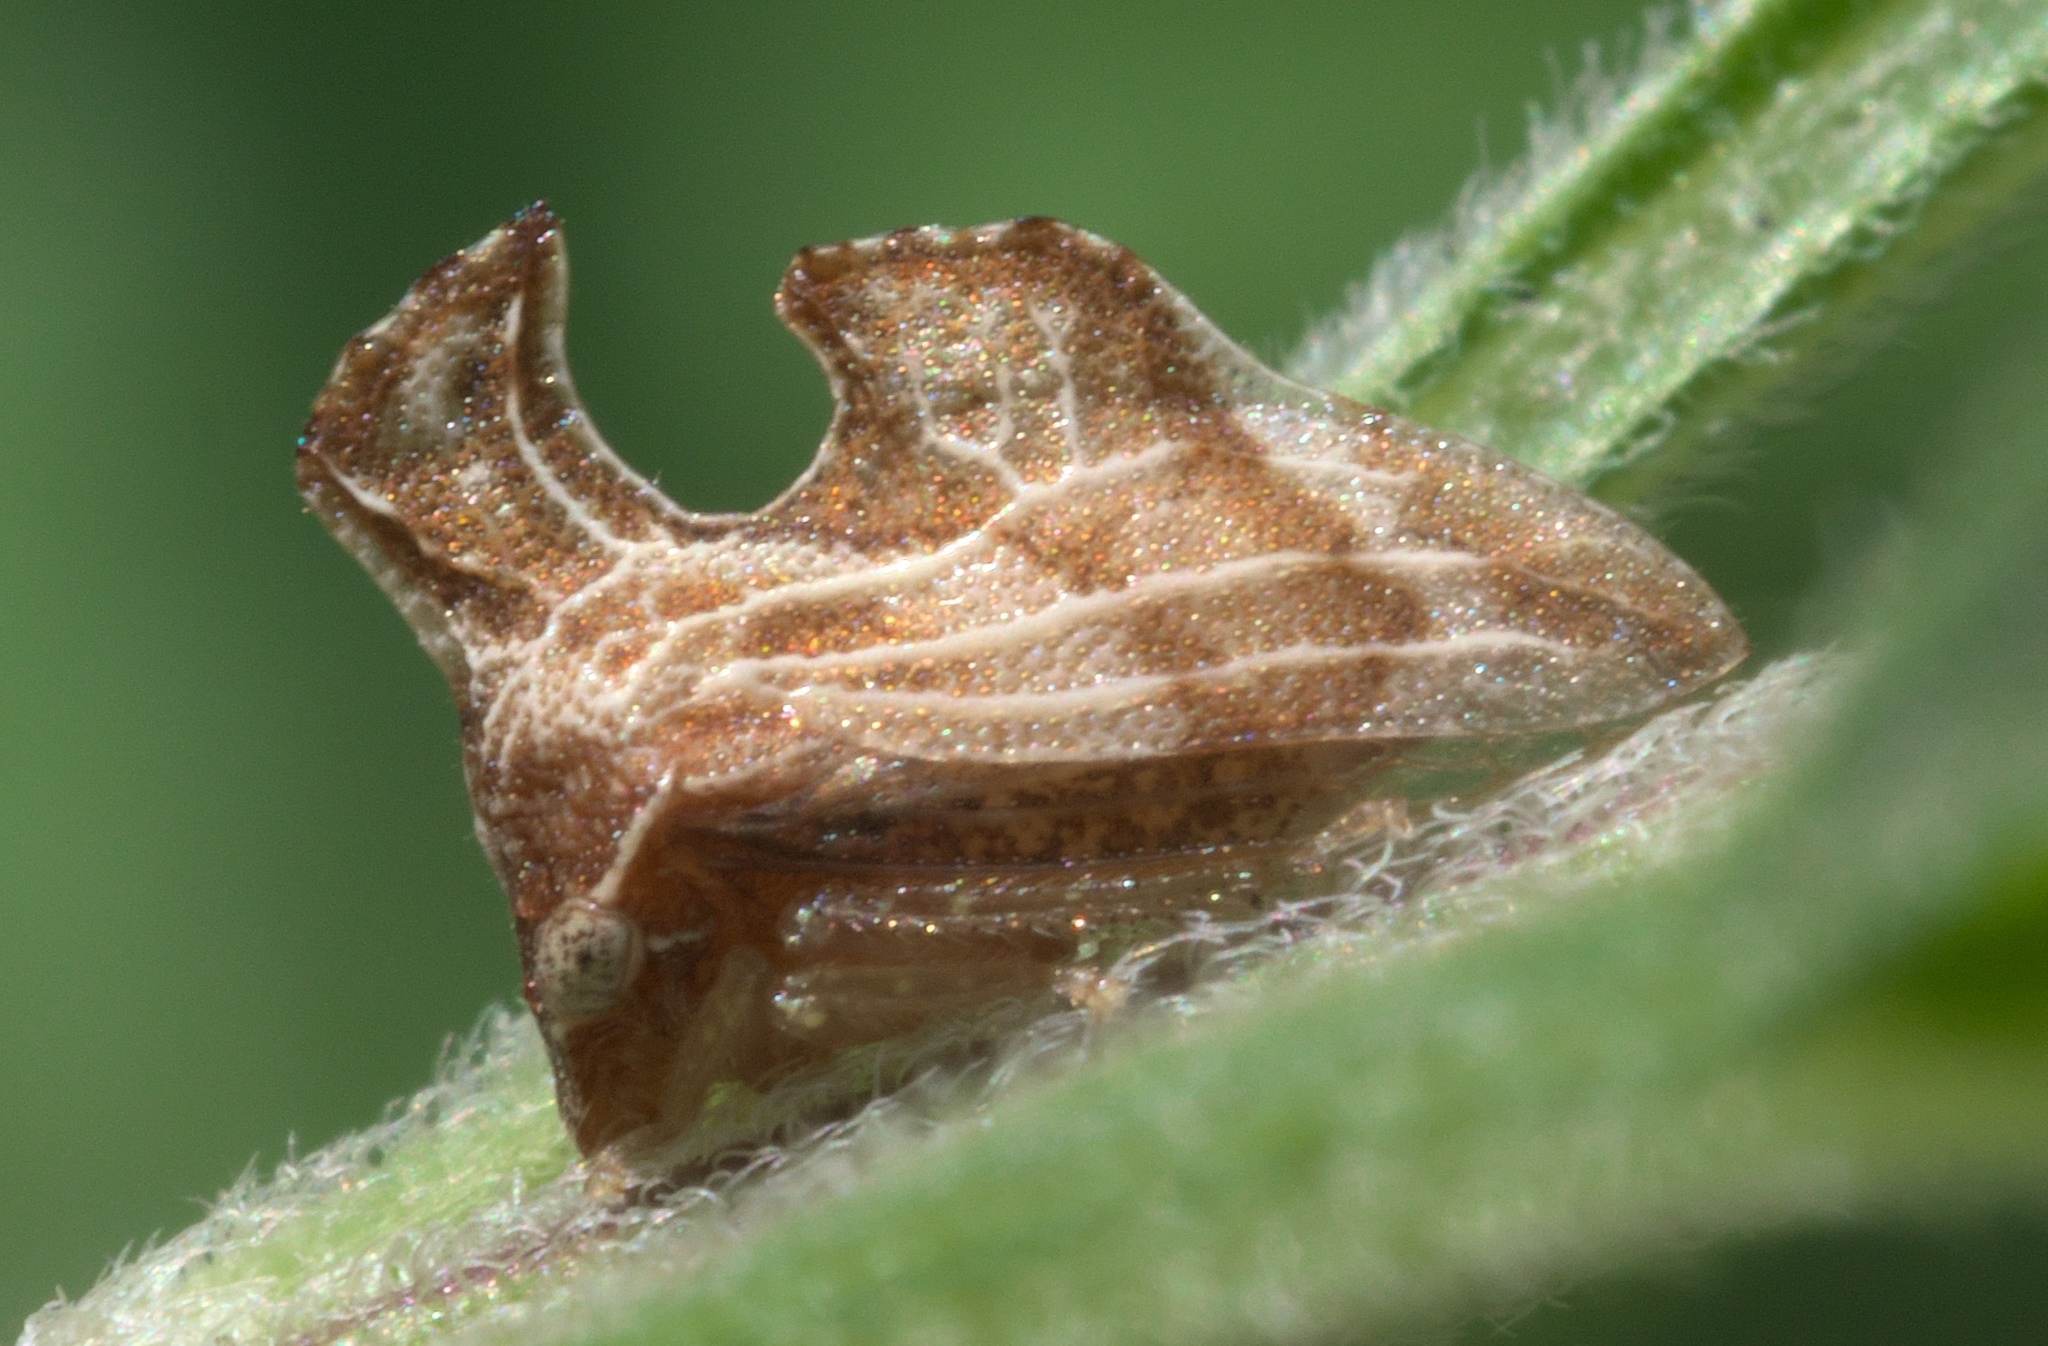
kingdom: Animalia
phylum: Arthropoda
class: Insecta
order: Hemiptera
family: Membracidae
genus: Entylia
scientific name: Entylia carinata
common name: Keeled treehopper
